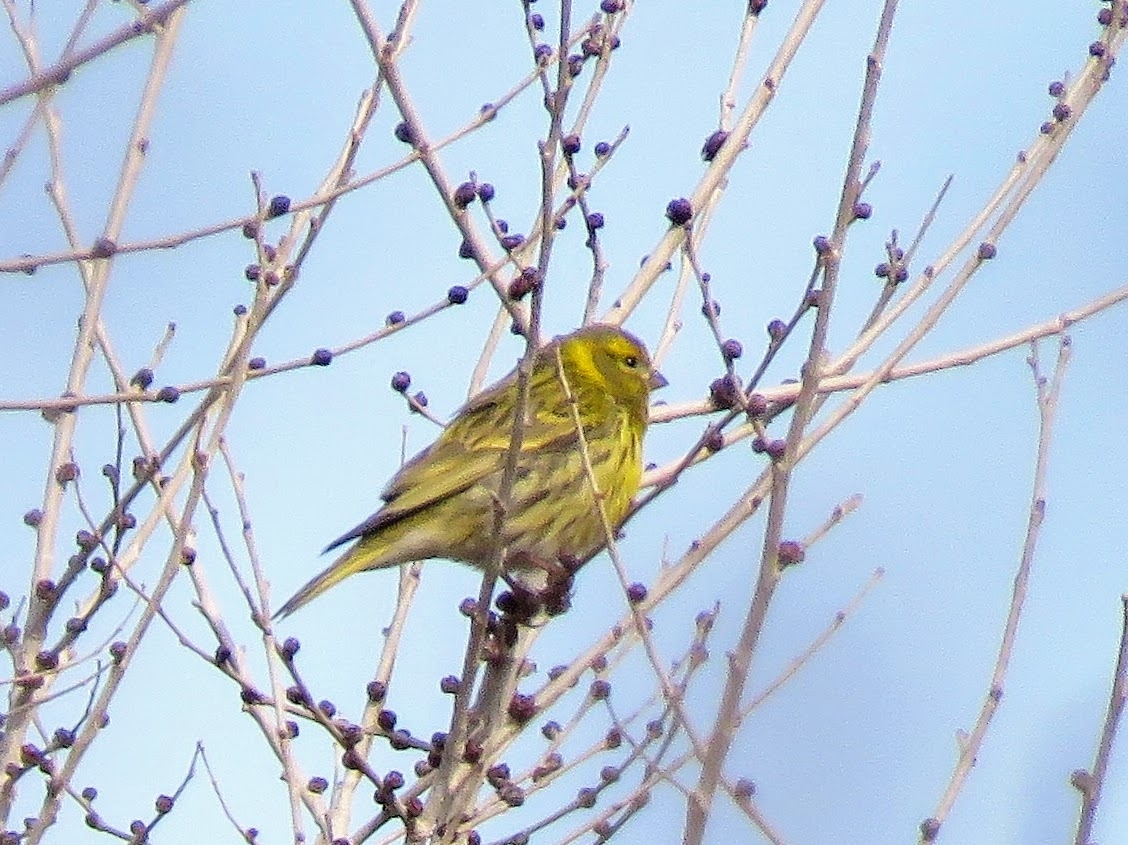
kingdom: Animalia
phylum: Chordata
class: Aves
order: Passeriformes
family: Fringillidae
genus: Serinus
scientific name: Serinus serinus
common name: European serin
